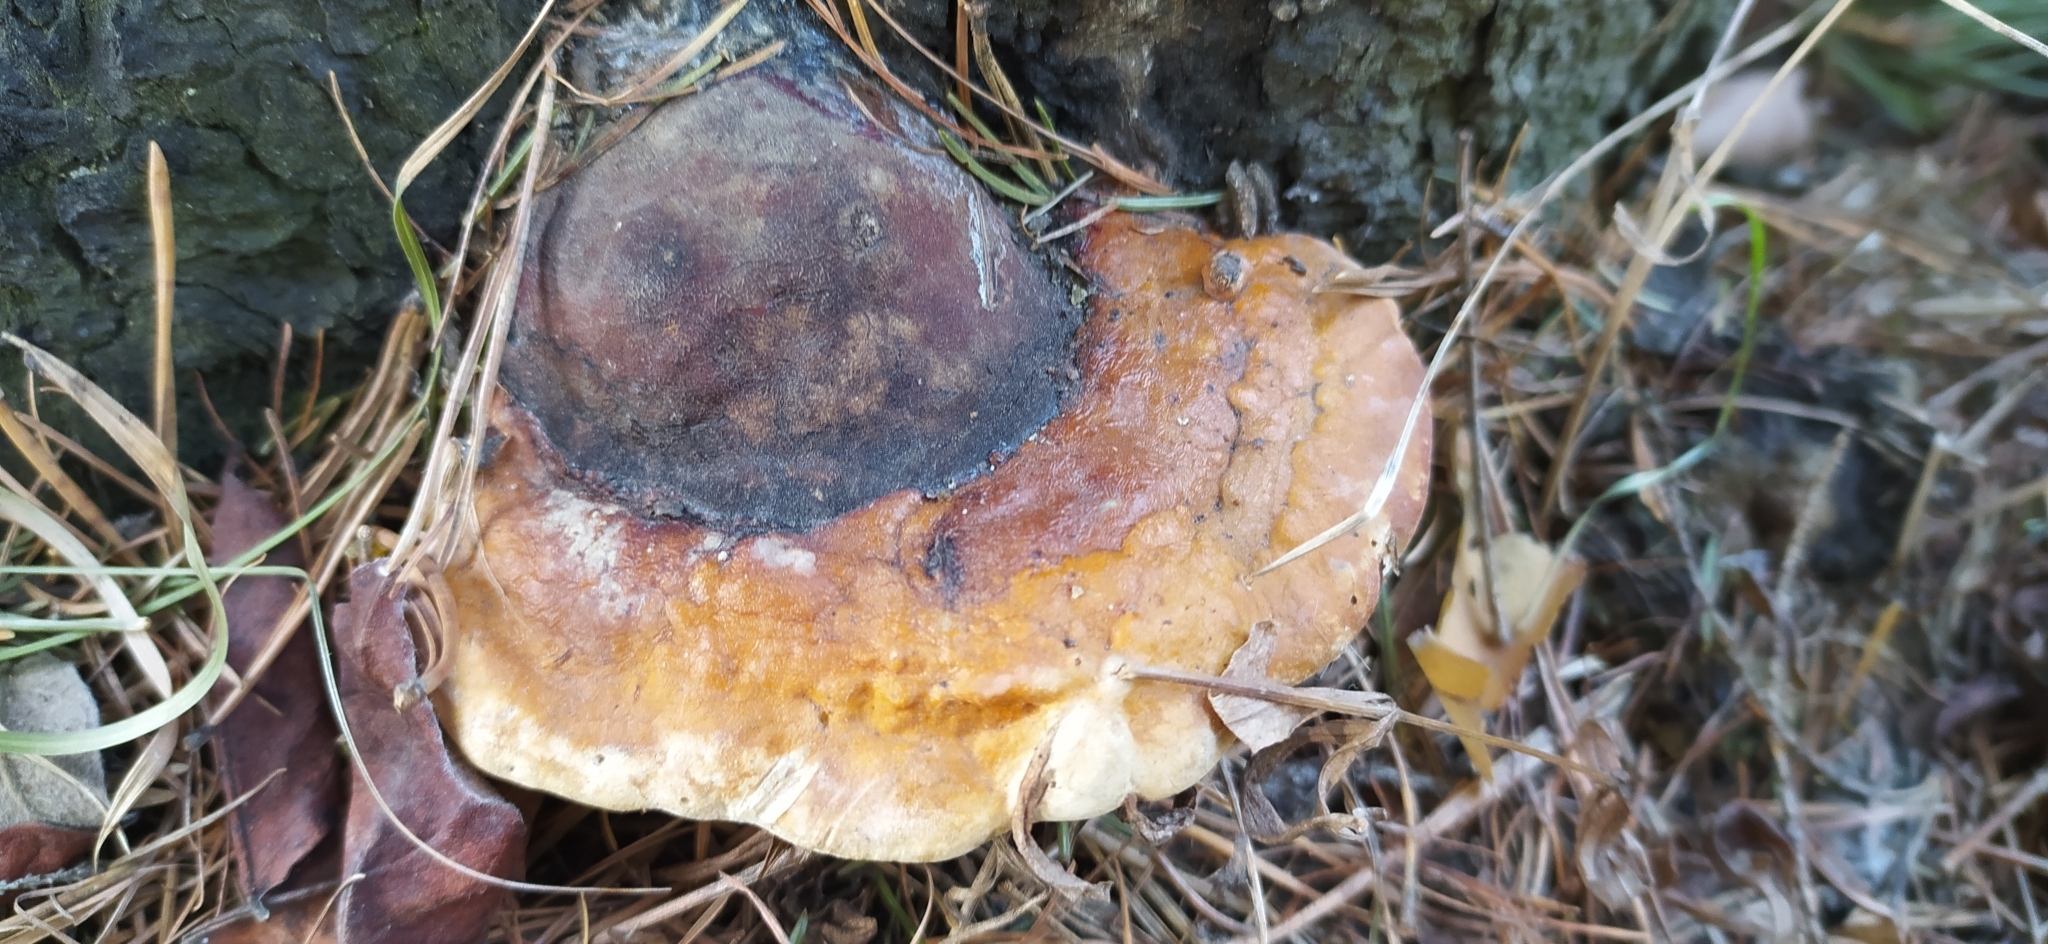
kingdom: Fungi
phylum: Basidiomycota
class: Agaricomycetes
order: Polyporales
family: Fomitopsidaceae
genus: Fomitopsis
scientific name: Fomitopsis pinicola
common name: Red-belted bracket
